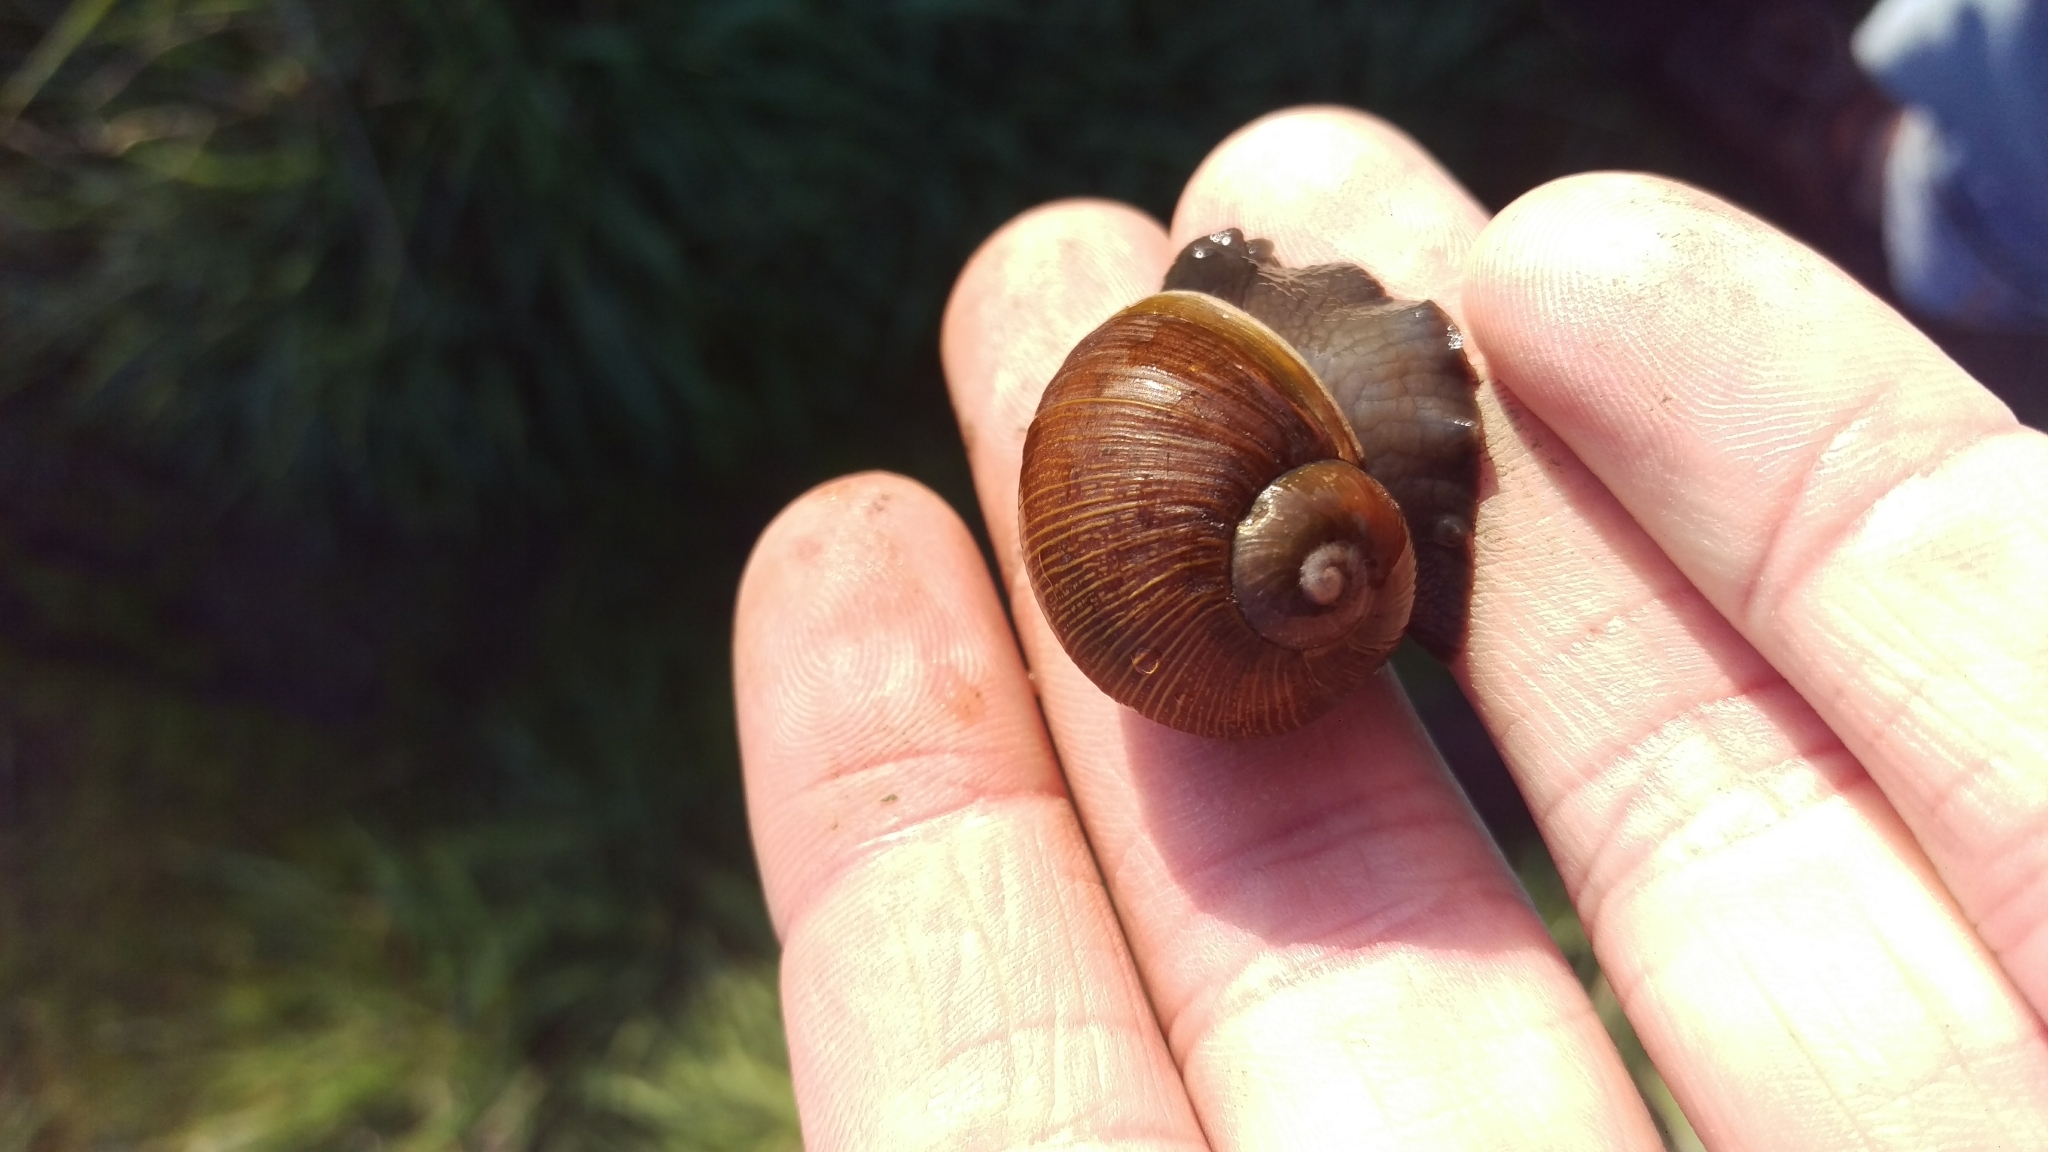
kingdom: Animalia
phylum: Mollusca
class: Gastropoda
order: Stylommatophora
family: Helicidae
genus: Cantareus
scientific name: Cantareus apertus
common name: Green gardensnail
